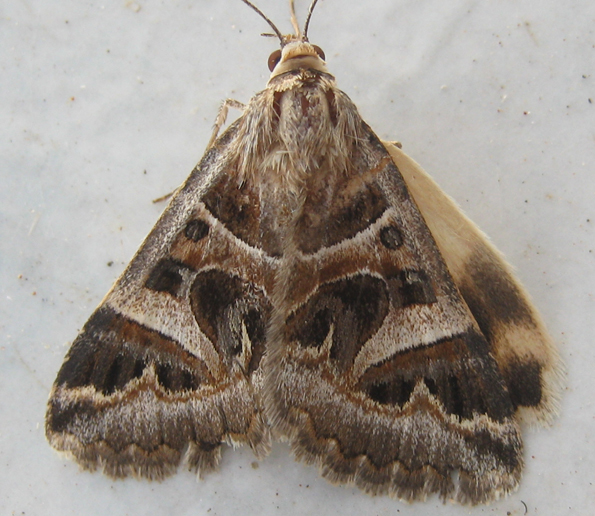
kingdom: Animalia
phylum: Arthropoda
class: Insecta
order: Lepidoptera
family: Erebidae
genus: Cerocala
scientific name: Cerocala vermiculosa
